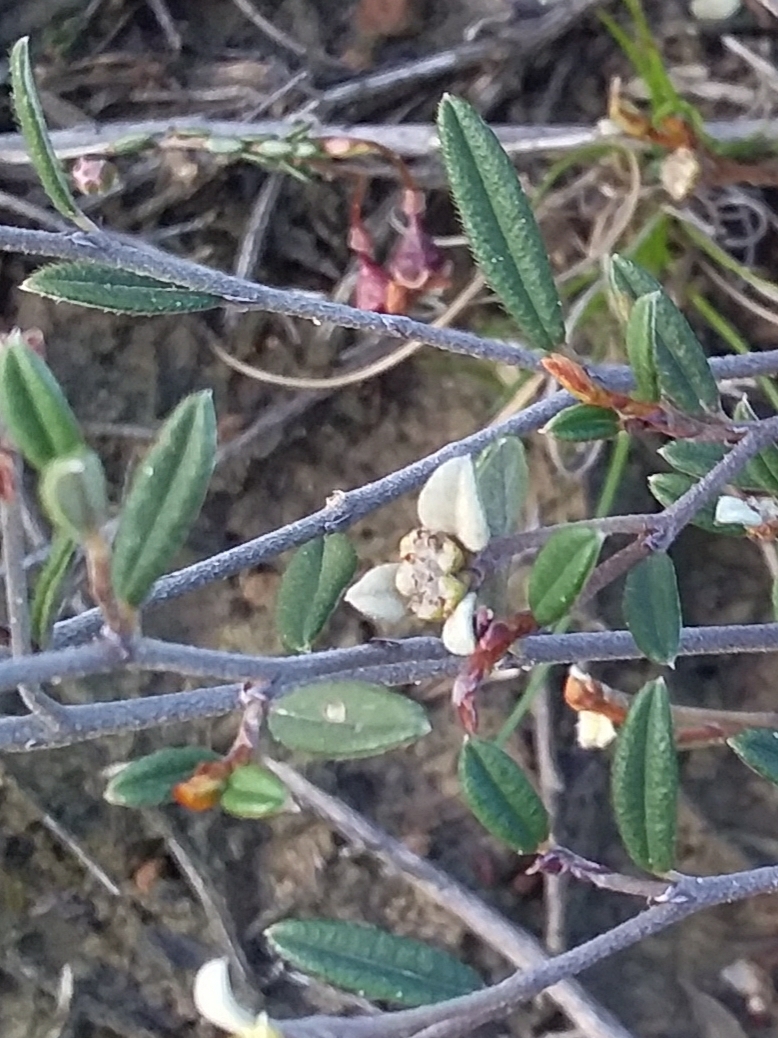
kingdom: Plantae
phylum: Tracheophyta
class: Magnoliopsida
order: Rosales
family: Rhamnaceae
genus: Spyridium
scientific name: Spyridium vexilliferum
